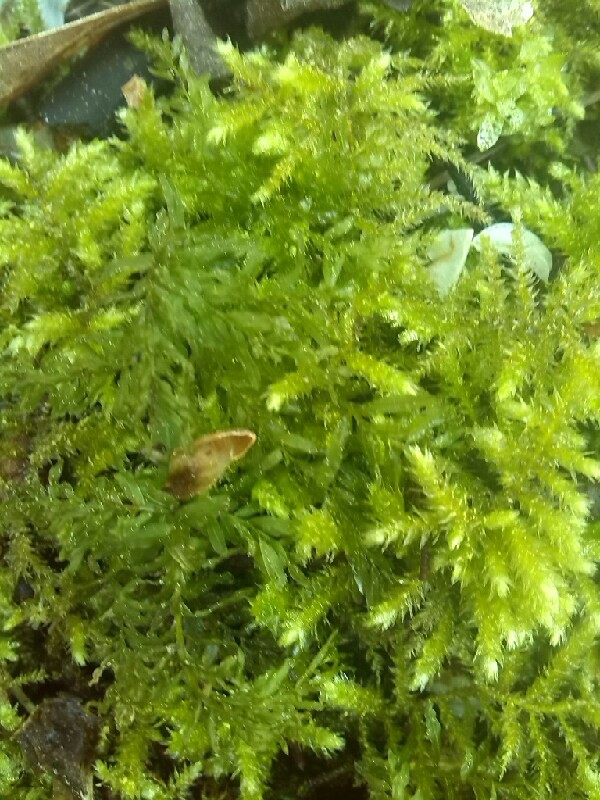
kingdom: Plantae
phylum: Bryophyta
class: Bryopsida
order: Bryales
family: Mniaceae
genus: Plagiomnium
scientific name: Plagiomnium undulatum
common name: Hart's-tongue thyme-moss
